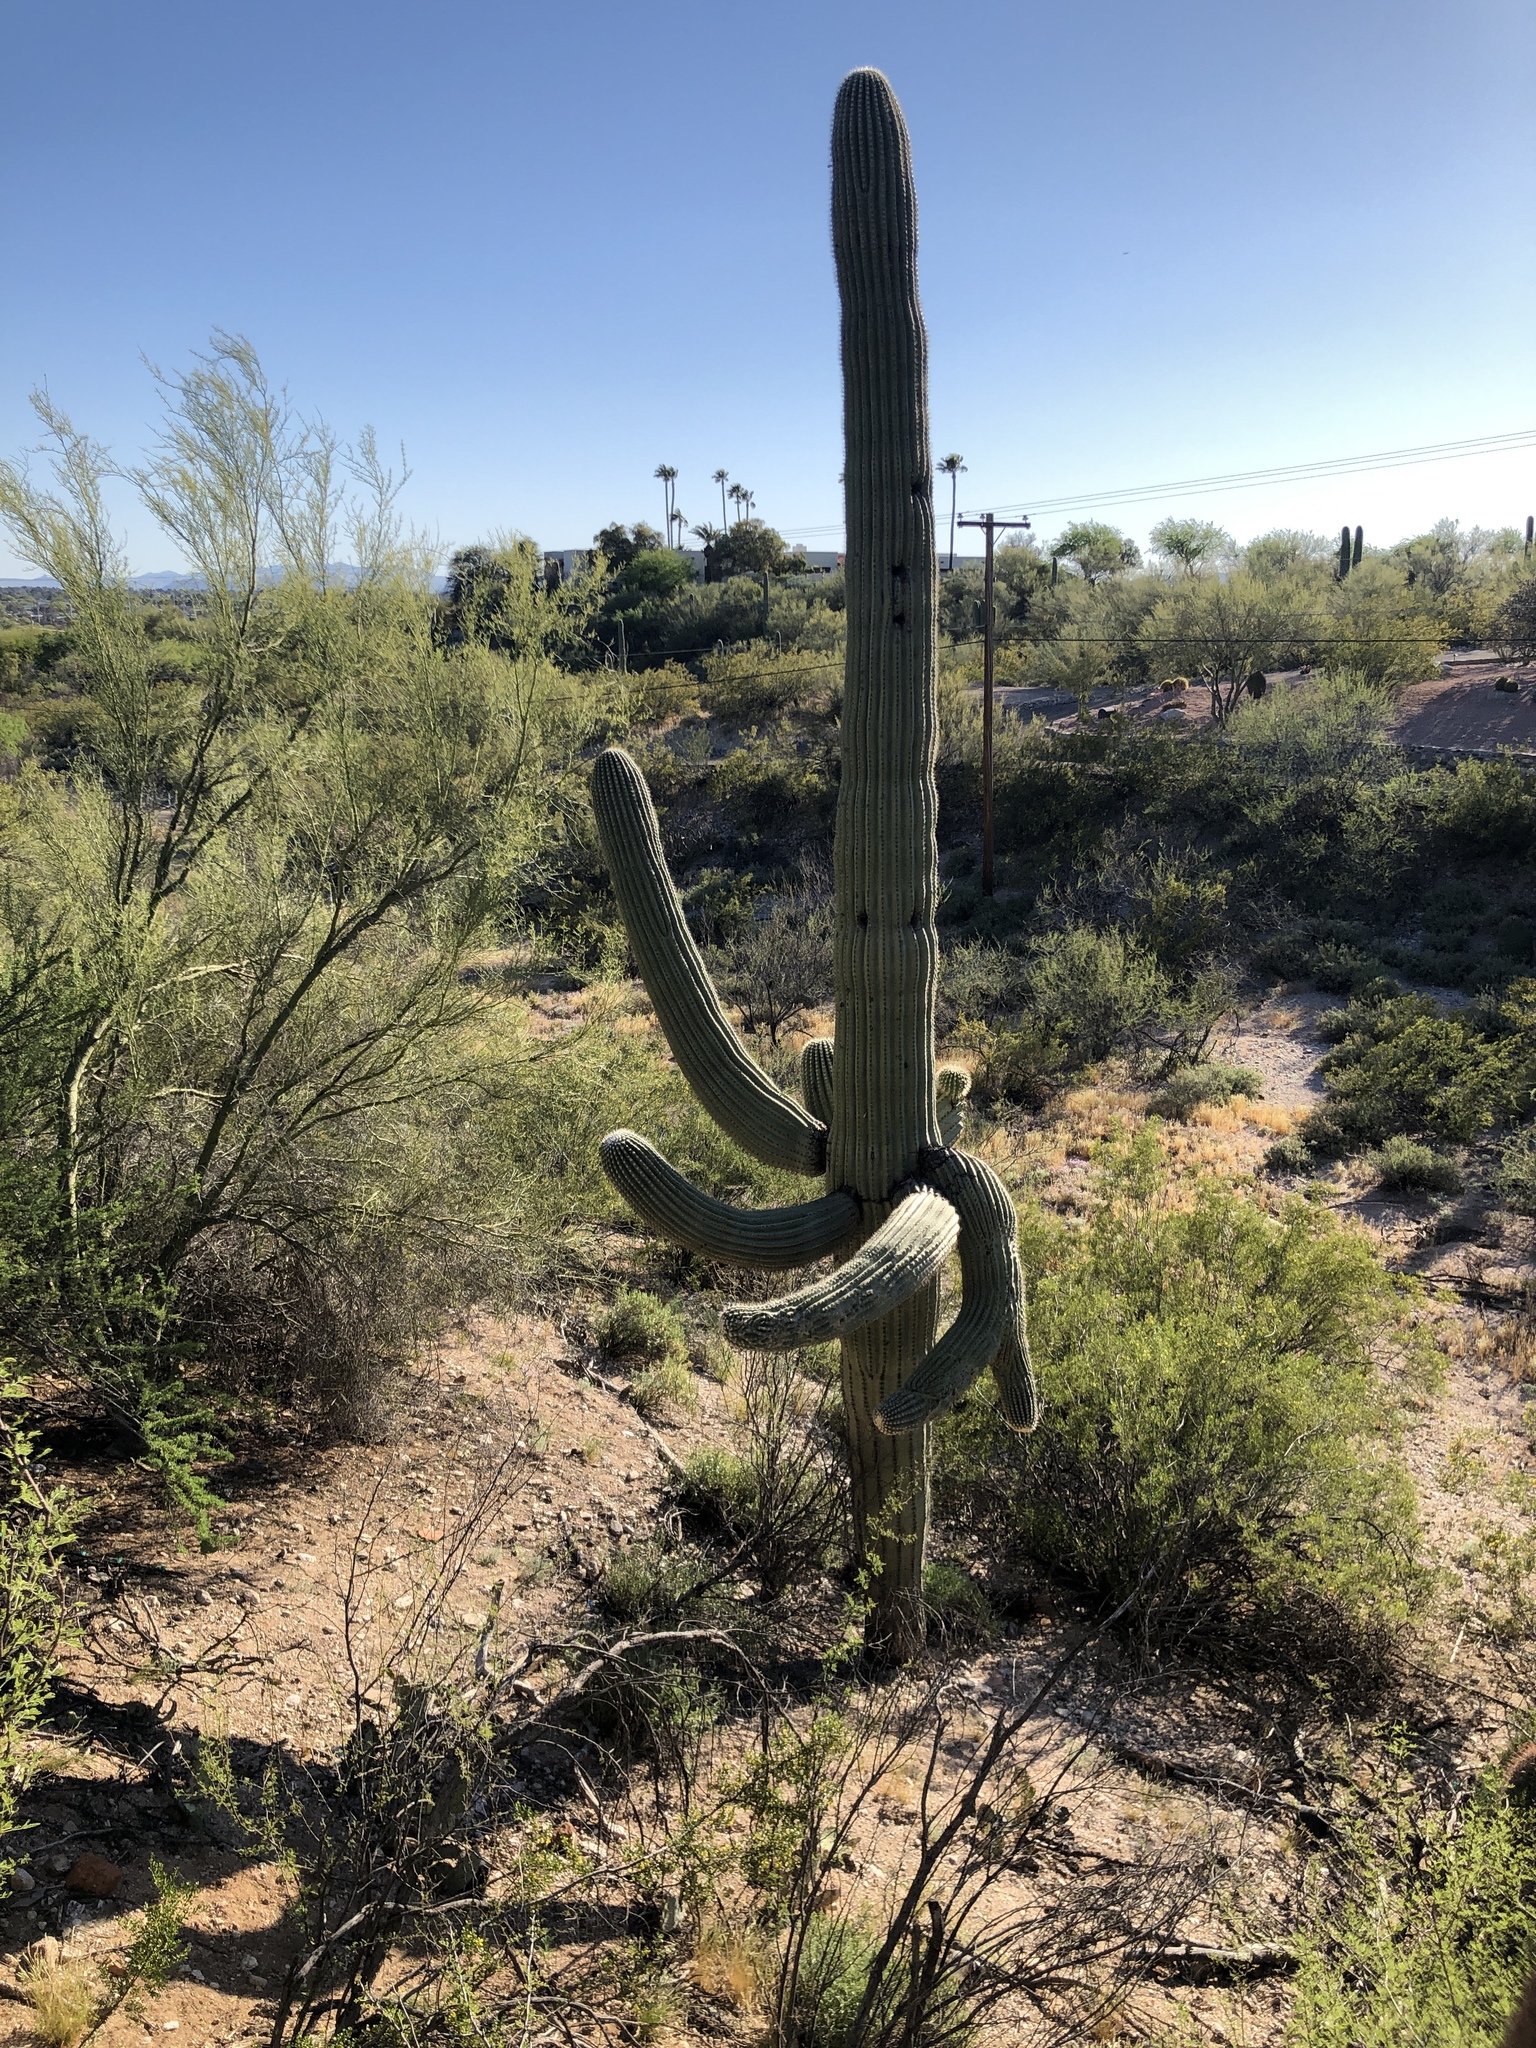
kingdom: Plantae
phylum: Tracheophyta
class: Magnoliopsida
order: Caryophyllales
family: Cactaceae
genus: Carnegiea
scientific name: Carnegiea gigantea
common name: Saguaro
